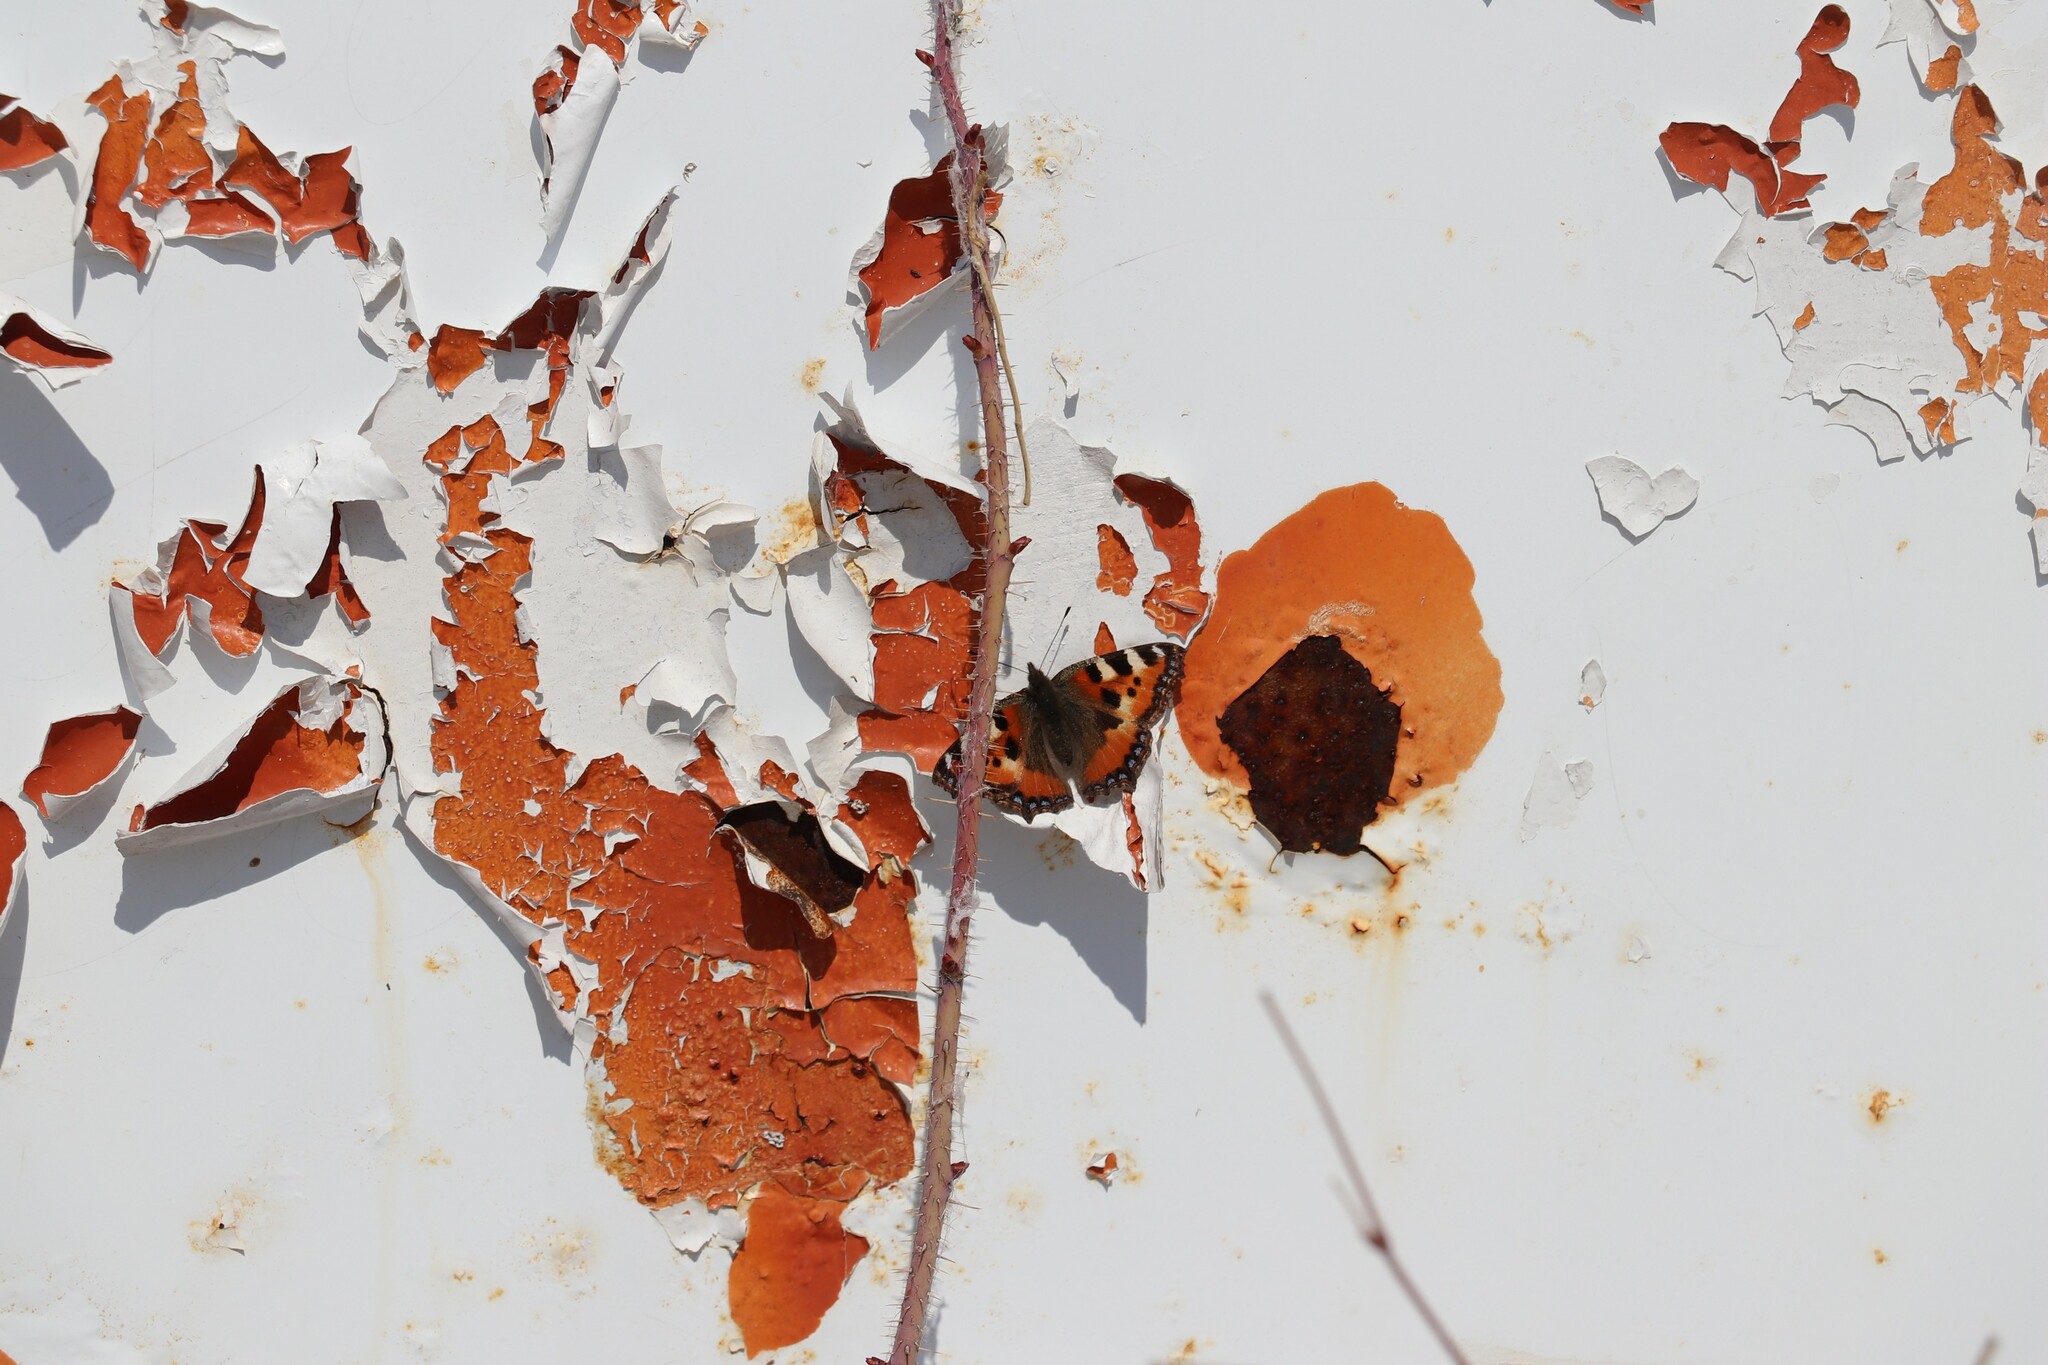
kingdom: Animalia
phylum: Arthropoda
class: Insecta
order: Lepidoptera
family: Nymphalidae
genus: Aglais
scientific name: Aglais urticae
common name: Small tortoiseshell
